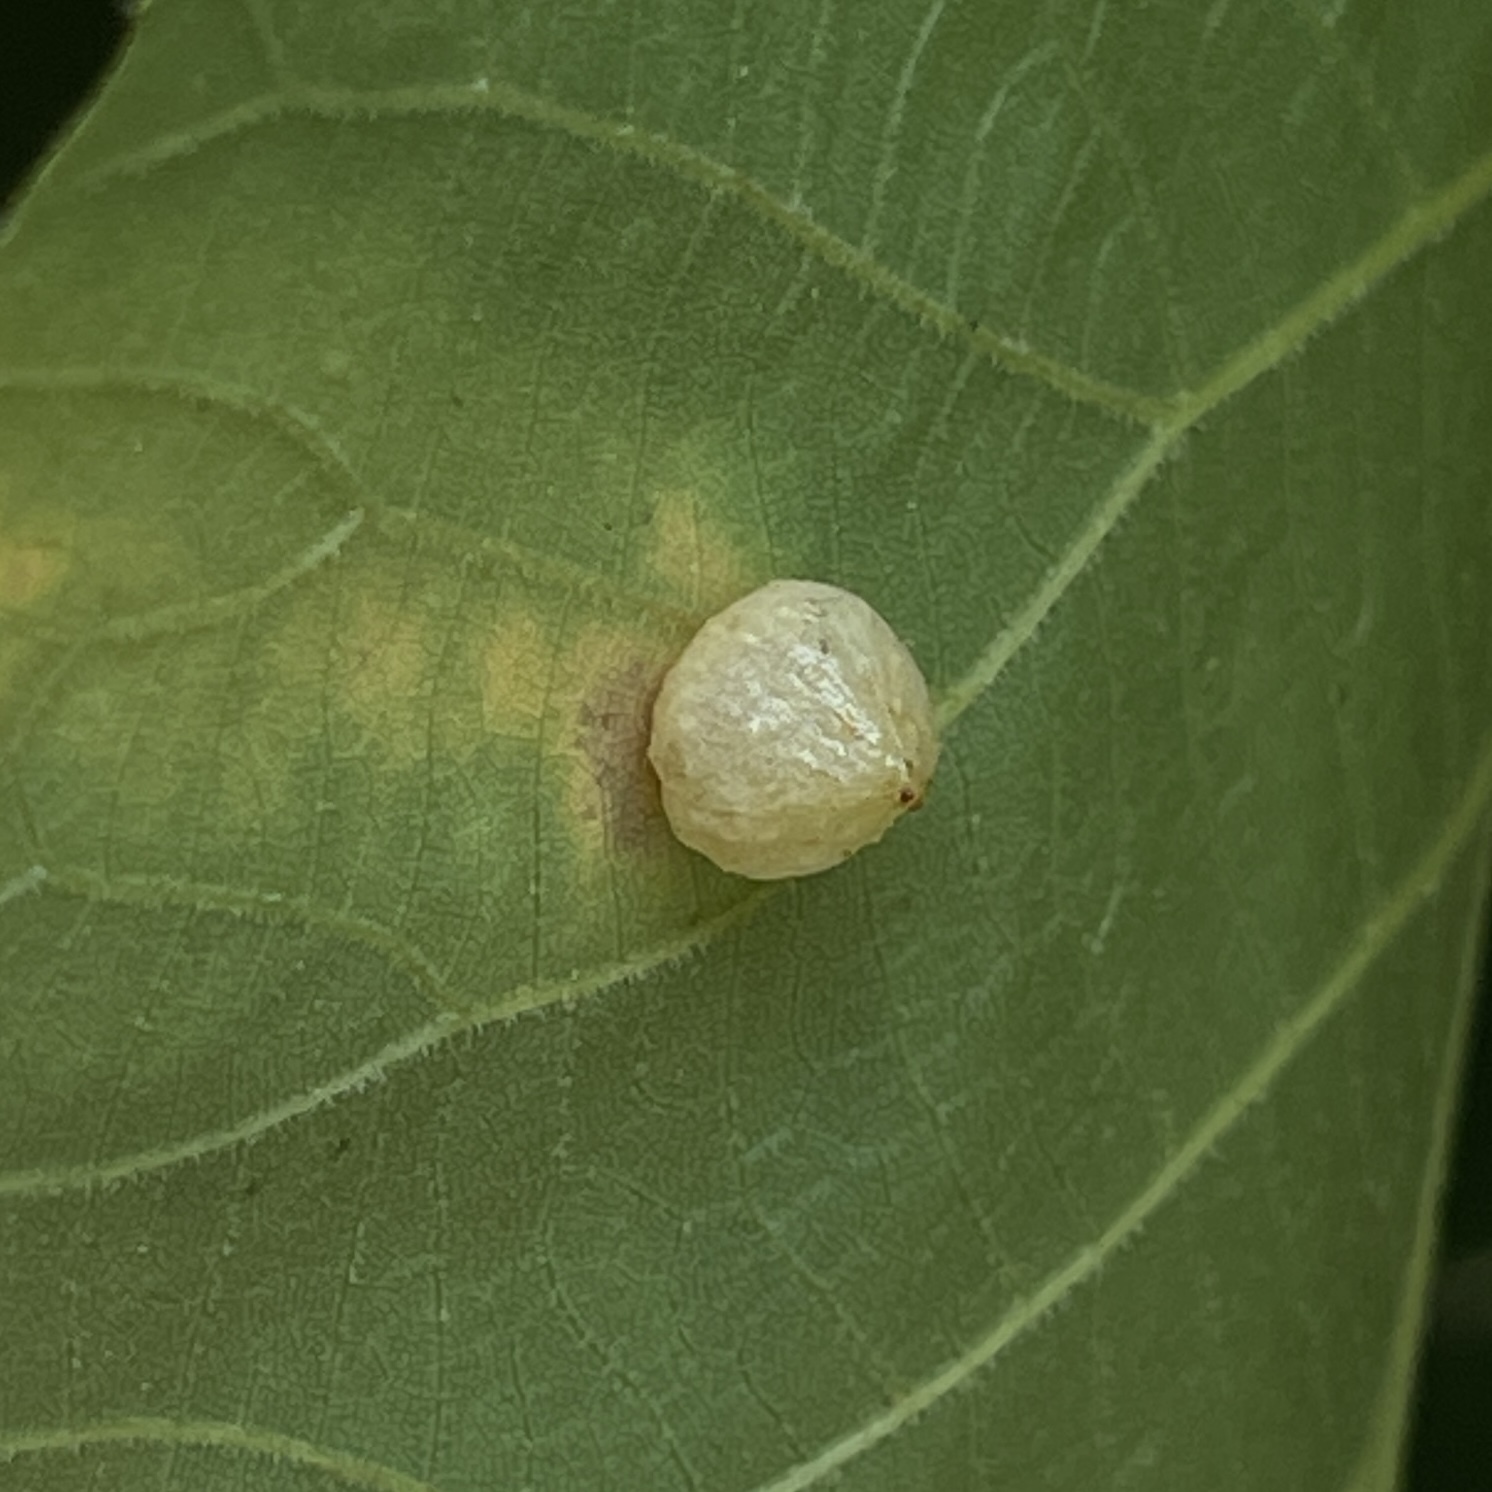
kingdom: Animalia
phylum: Arthropoda
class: Insecta
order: Diptera
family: Cecidomyiidae
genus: Caryomyia
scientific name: Caryomyia tuberculata
